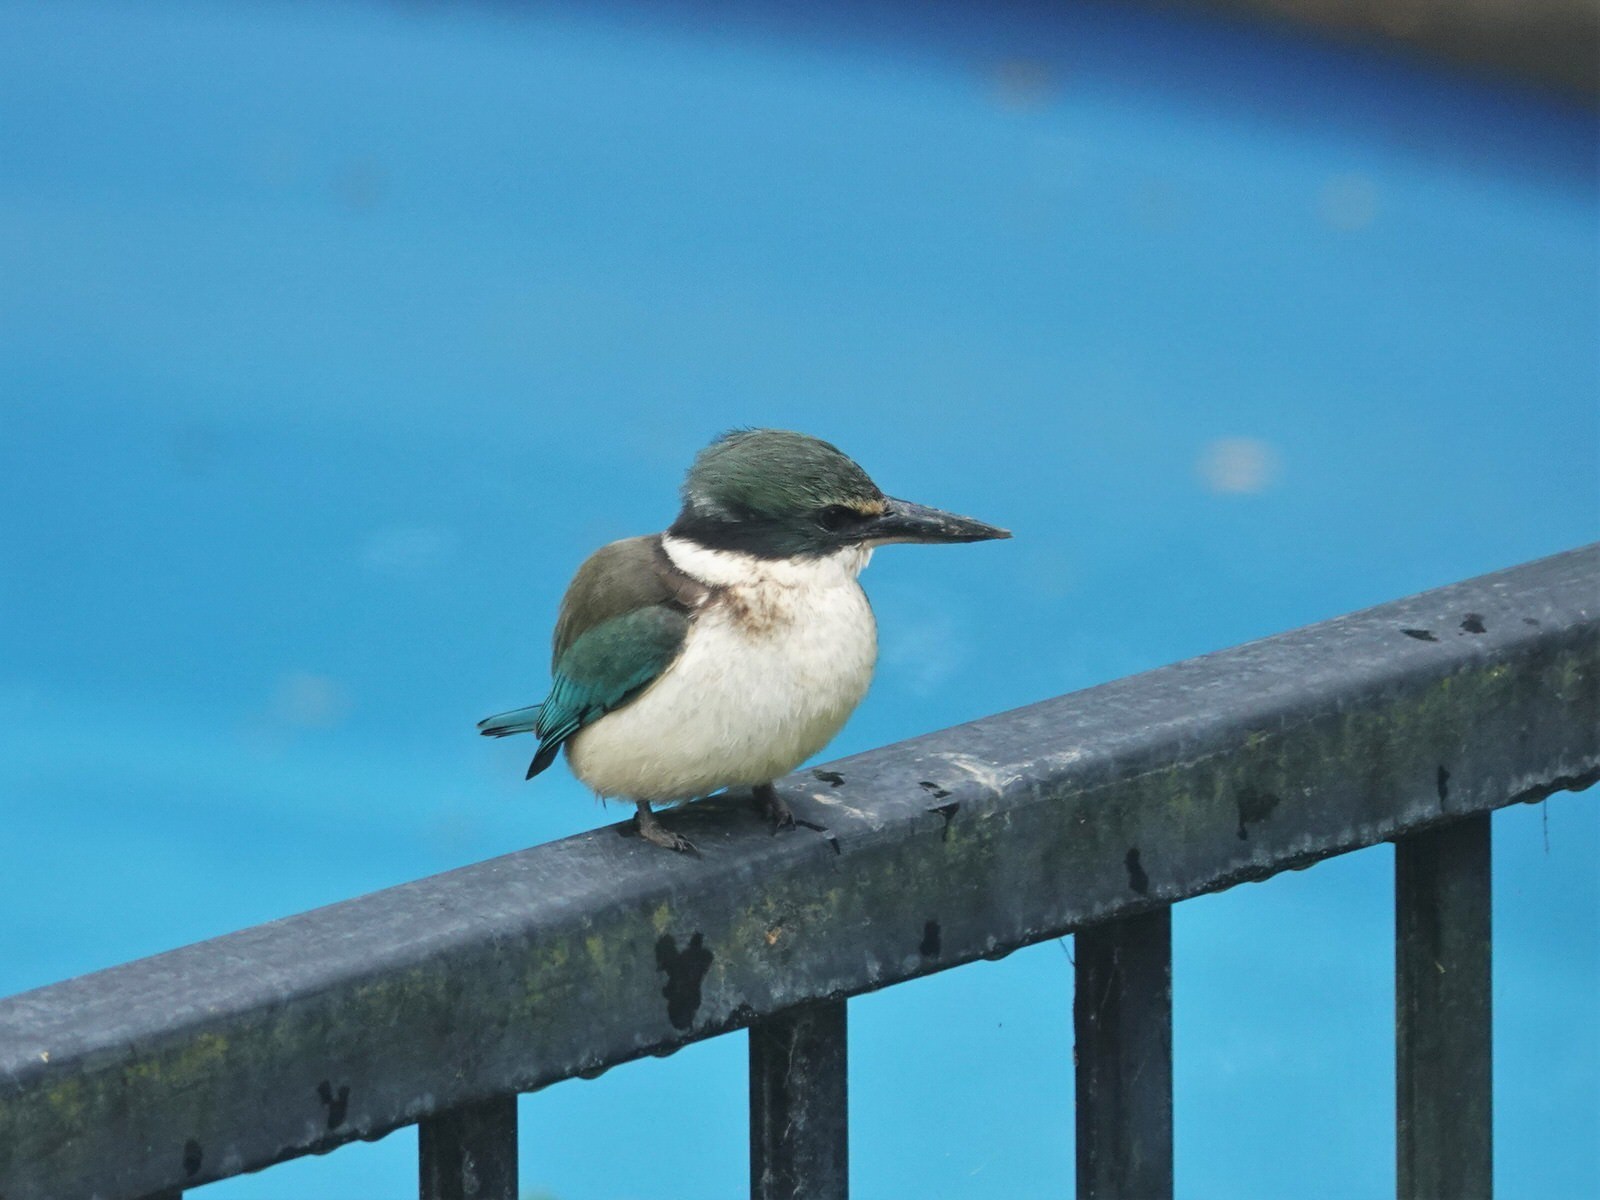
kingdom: Animalia
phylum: Chordata
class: Aves
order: Coraciiformes
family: Alcedinidae
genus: Todiramphus
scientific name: Todiramphus sanctus
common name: Sacred kingfisher
